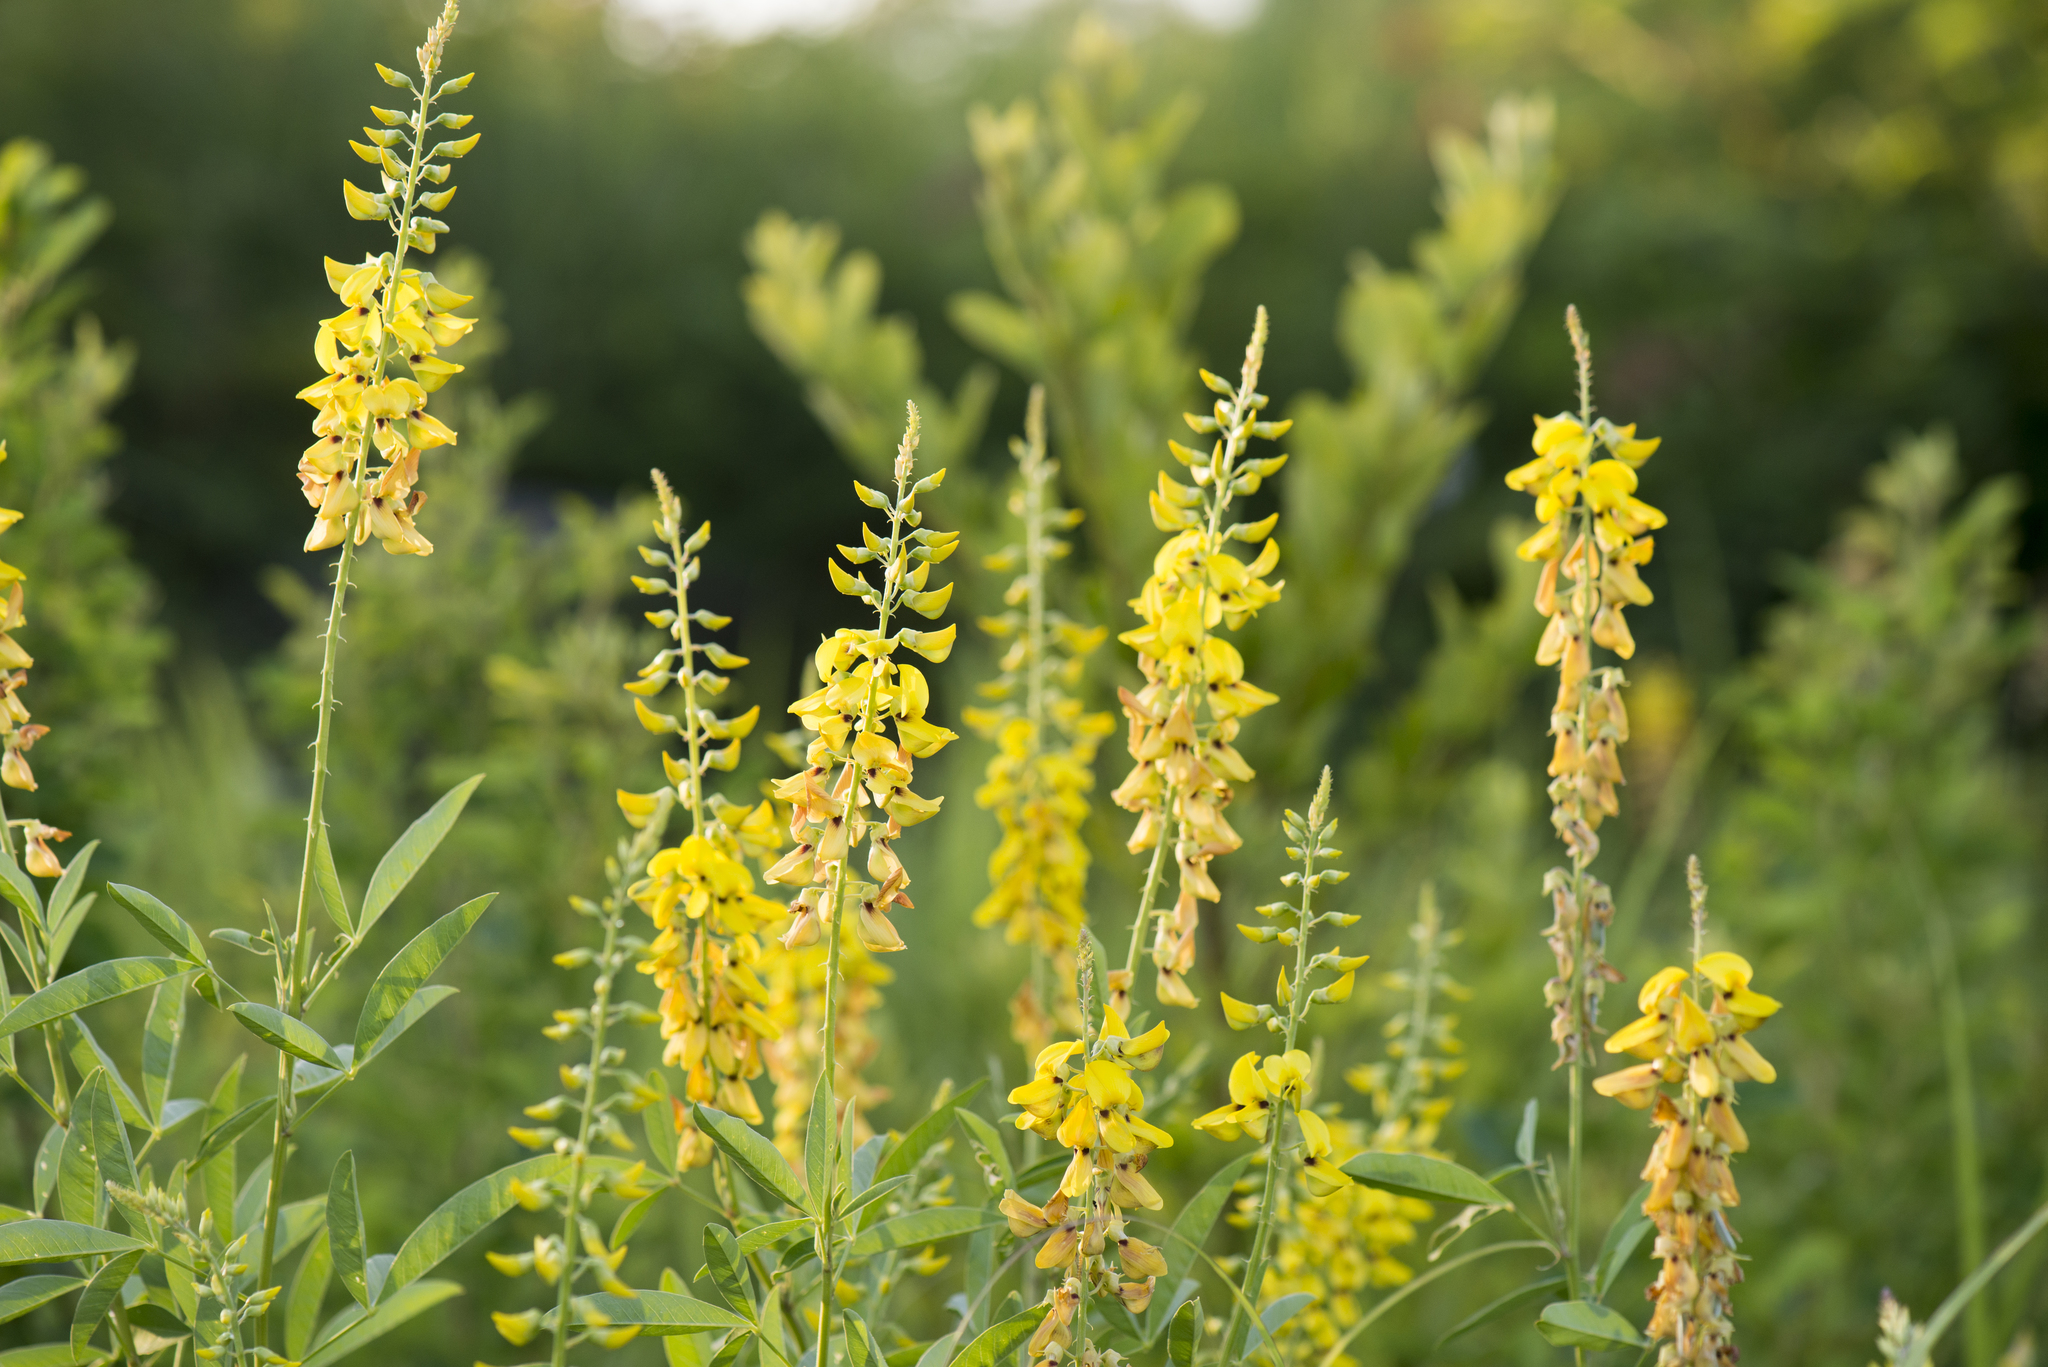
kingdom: Plantae
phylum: Tracheophyta
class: Magnoliopsida
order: Fabales
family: Fabaceae
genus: Crotalaria
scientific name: Crotalaria trichotoma
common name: West indian rattlebox
